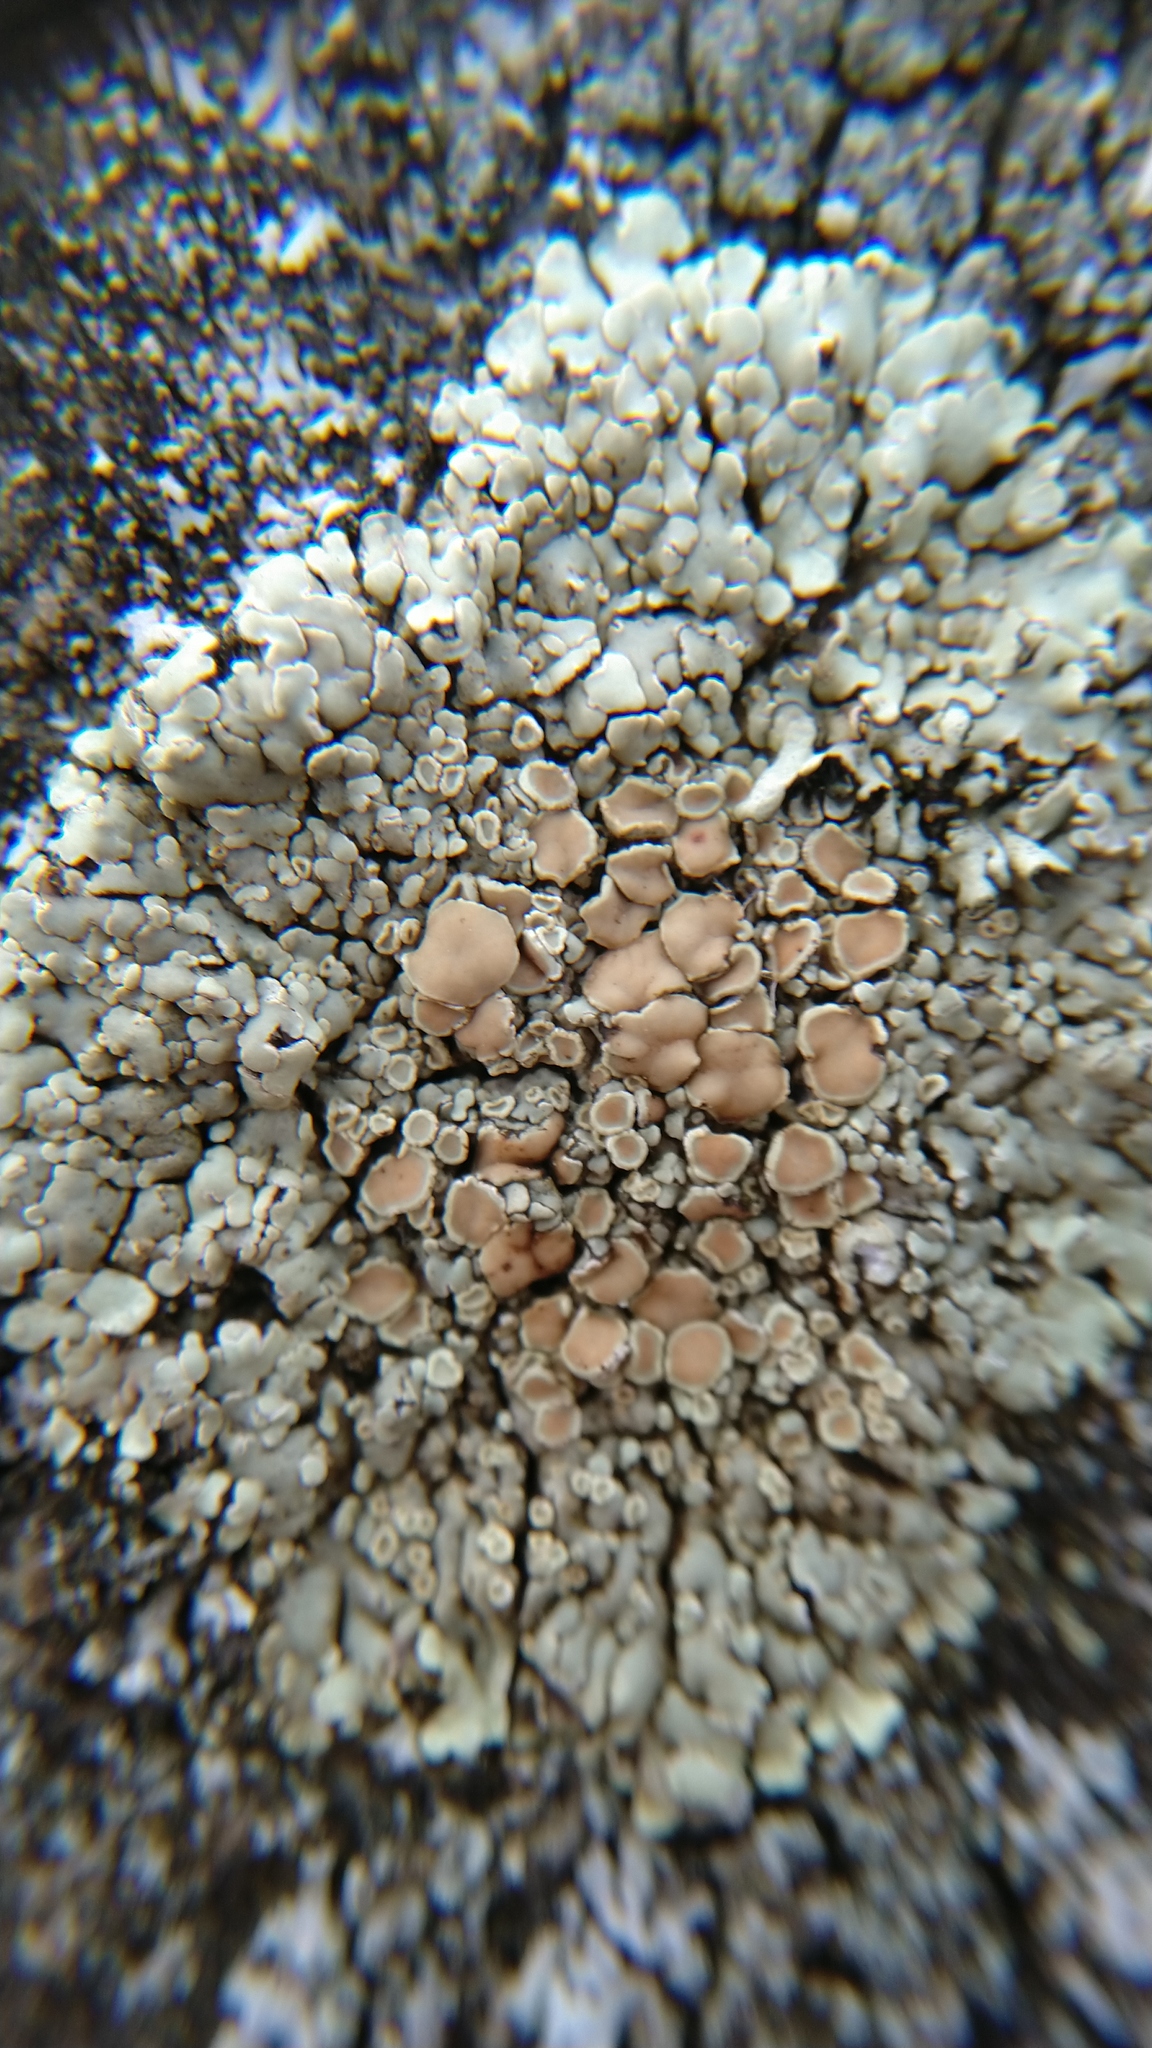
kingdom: Fungi
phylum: Ascomycota
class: Lecanoromycetes
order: Lecanorales
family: Lecanoraceae
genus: Protoparmeliopsis
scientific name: Protoparmeliopsis muralis
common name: Stonewall rim lichen
